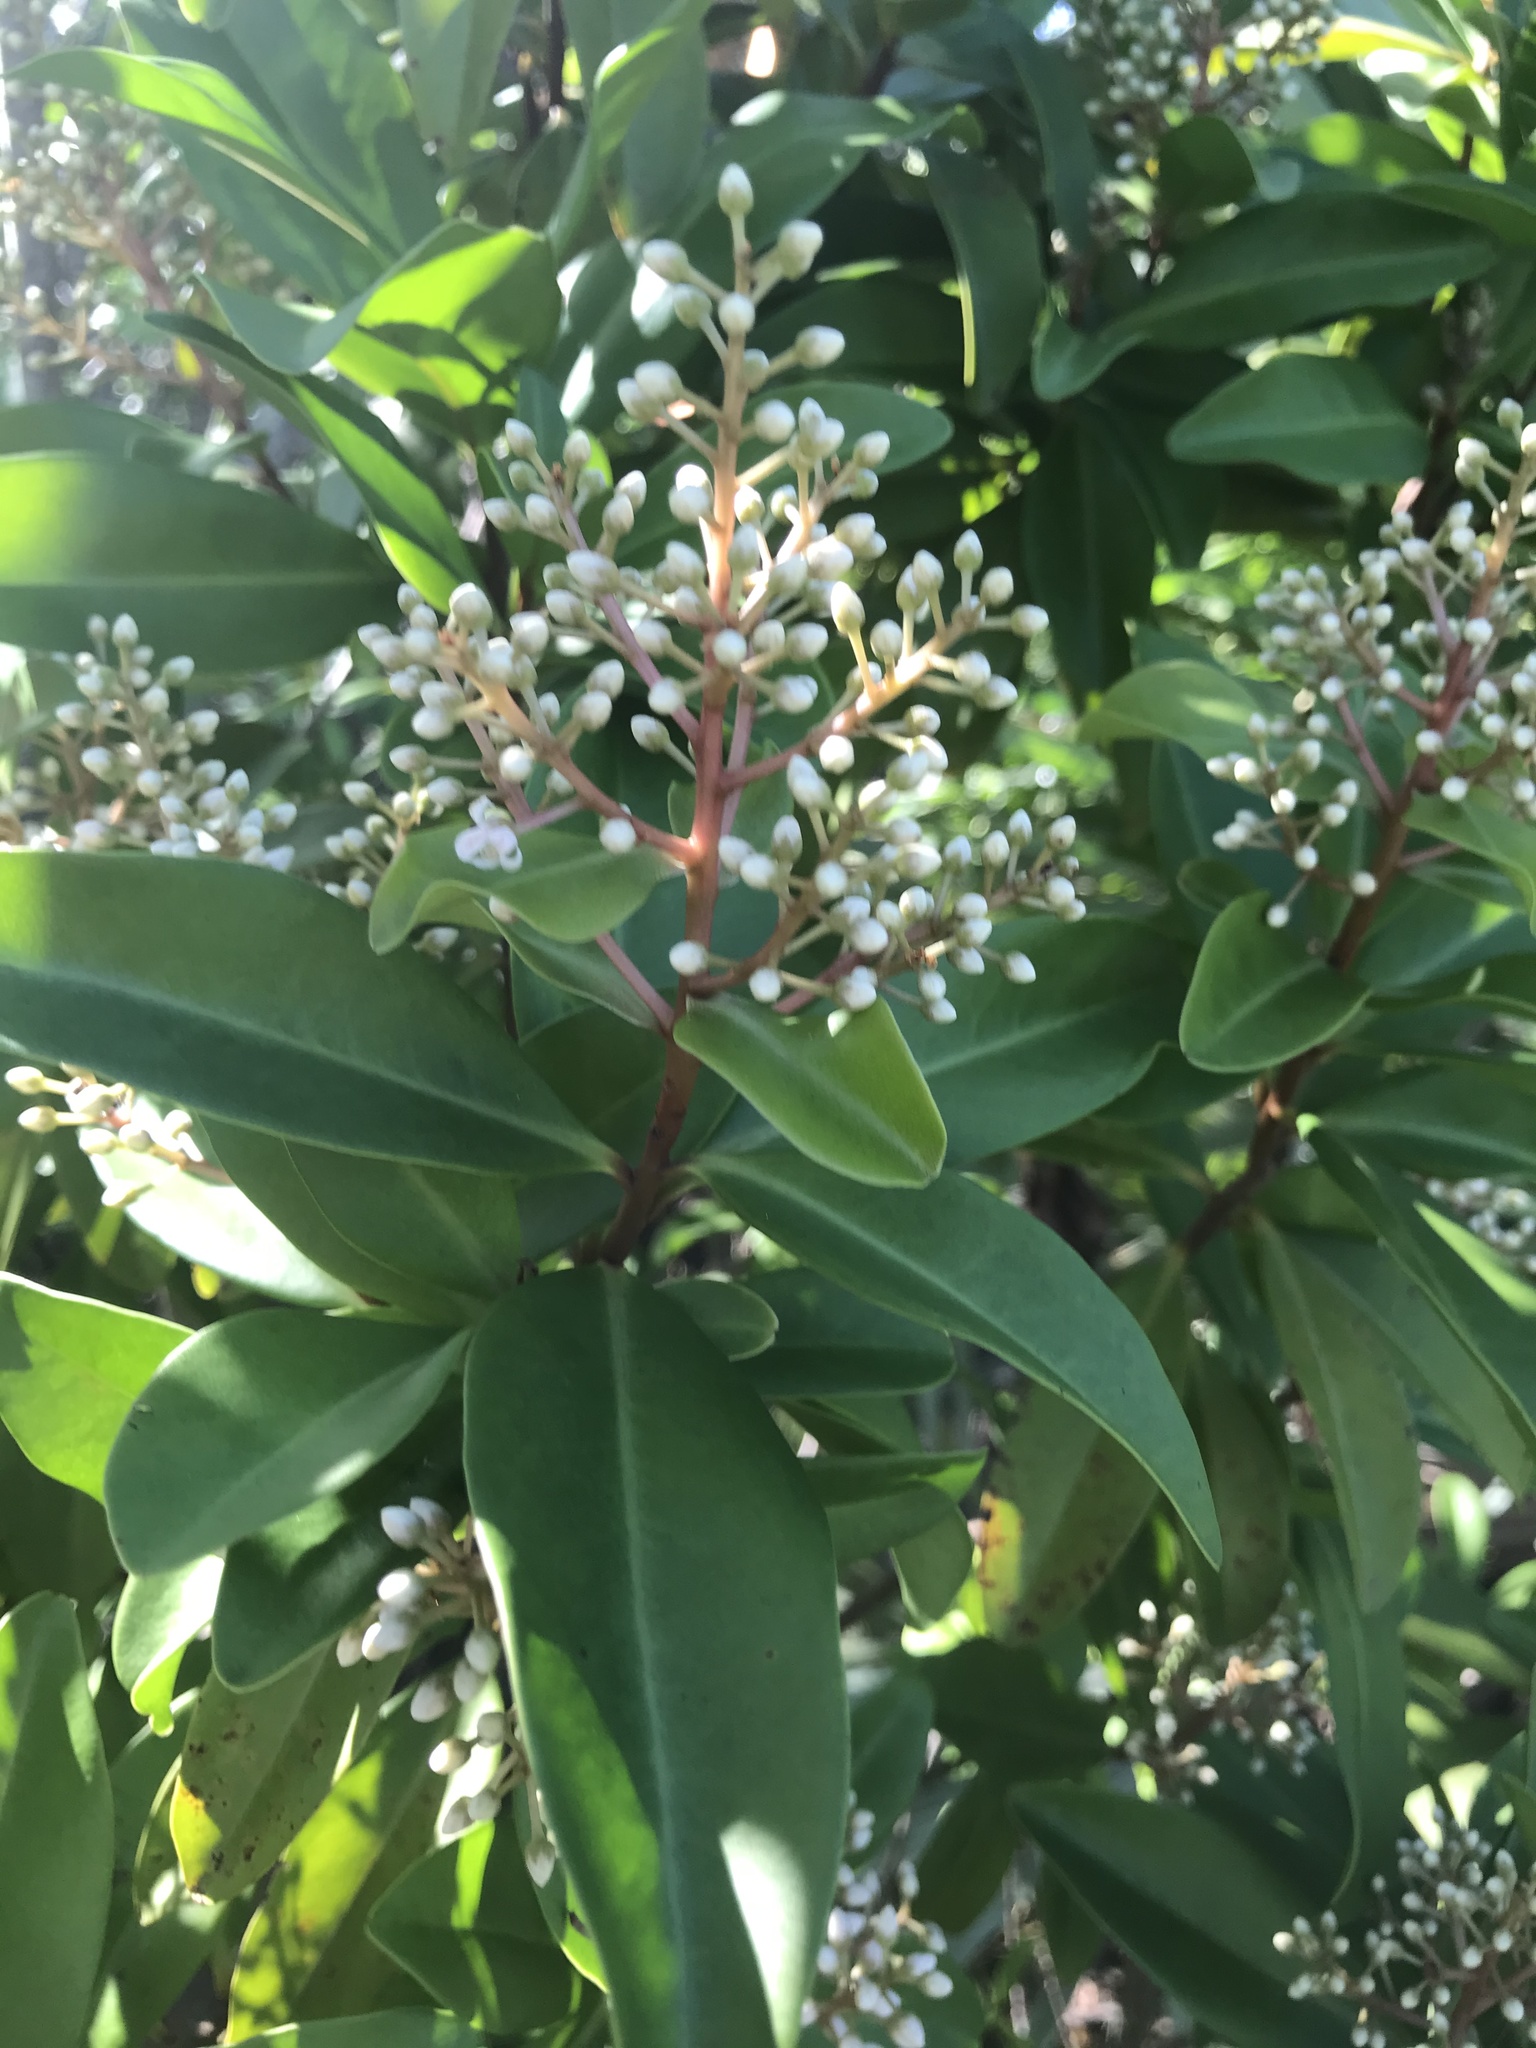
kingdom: Plantae
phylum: Tracheophyta
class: Magnoliopsida
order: Ericales
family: Primulaceae
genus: Ardisia
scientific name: Ardisia escallonioides
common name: Island marlberry
